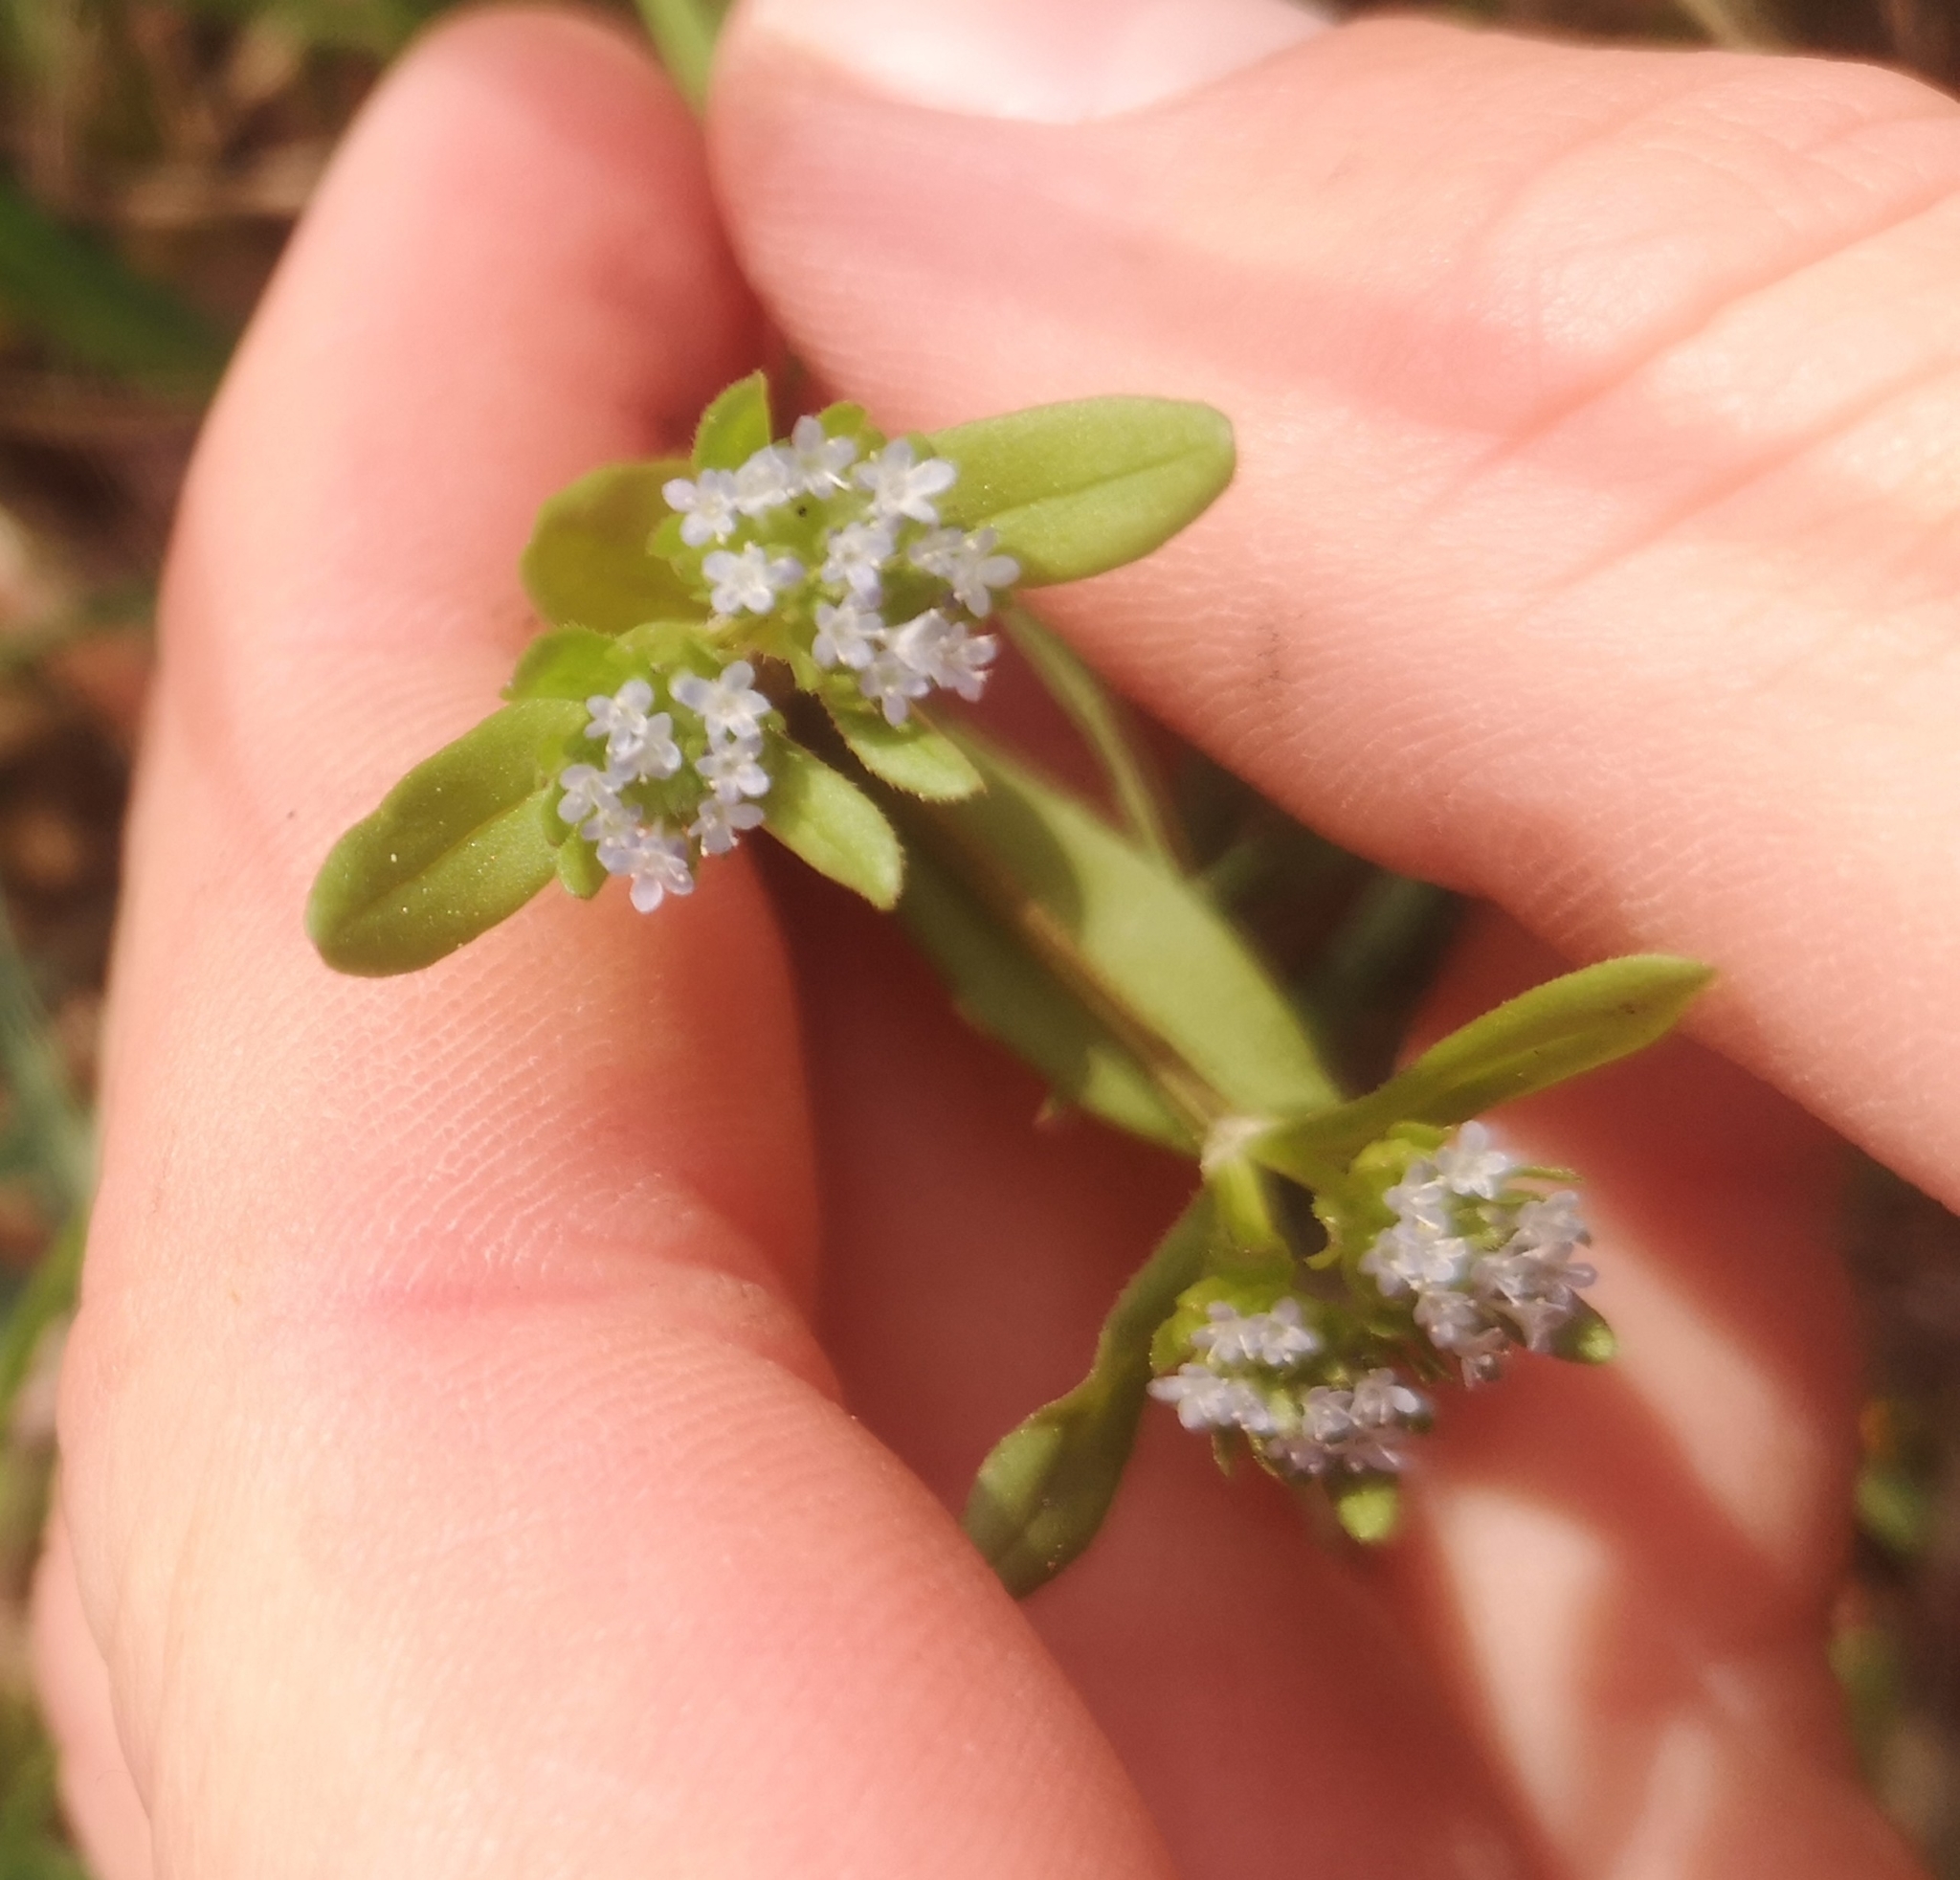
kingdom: Plantae
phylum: Tracheophyta
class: Magnoliopsida
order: Dipsacales
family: Caprifoliaceae
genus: Valerianella
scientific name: Valerianella locusta
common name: Common cornsalad
